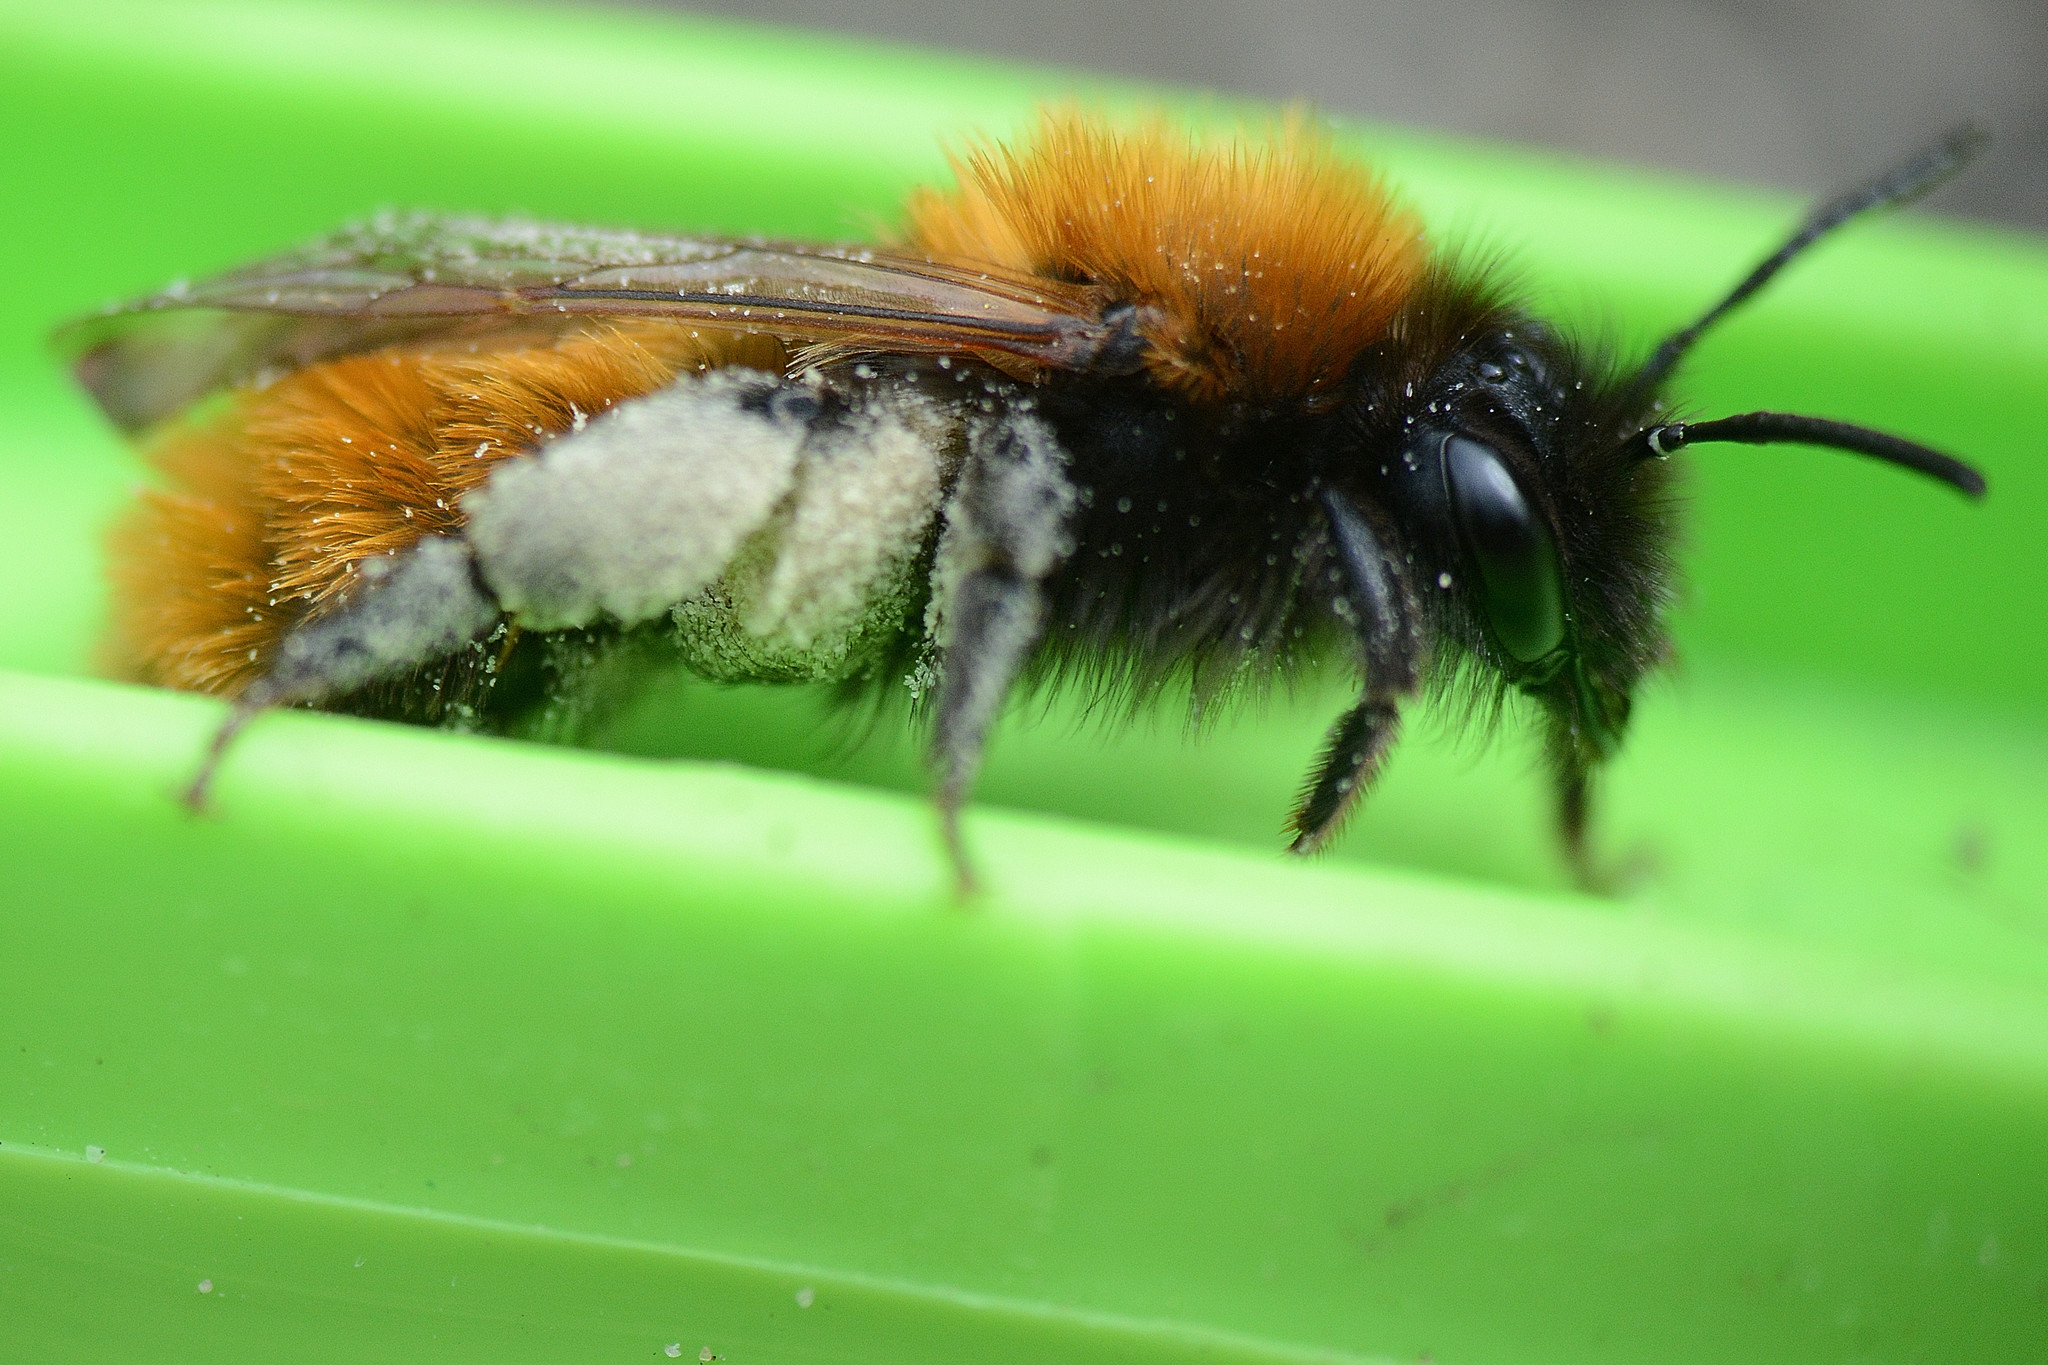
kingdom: Animalia
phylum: Arthropoda
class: Insecta
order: Hymenoptera
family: Andrenidae
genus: Andrena
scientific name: Andrena fulva
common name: Tawny mining bee
